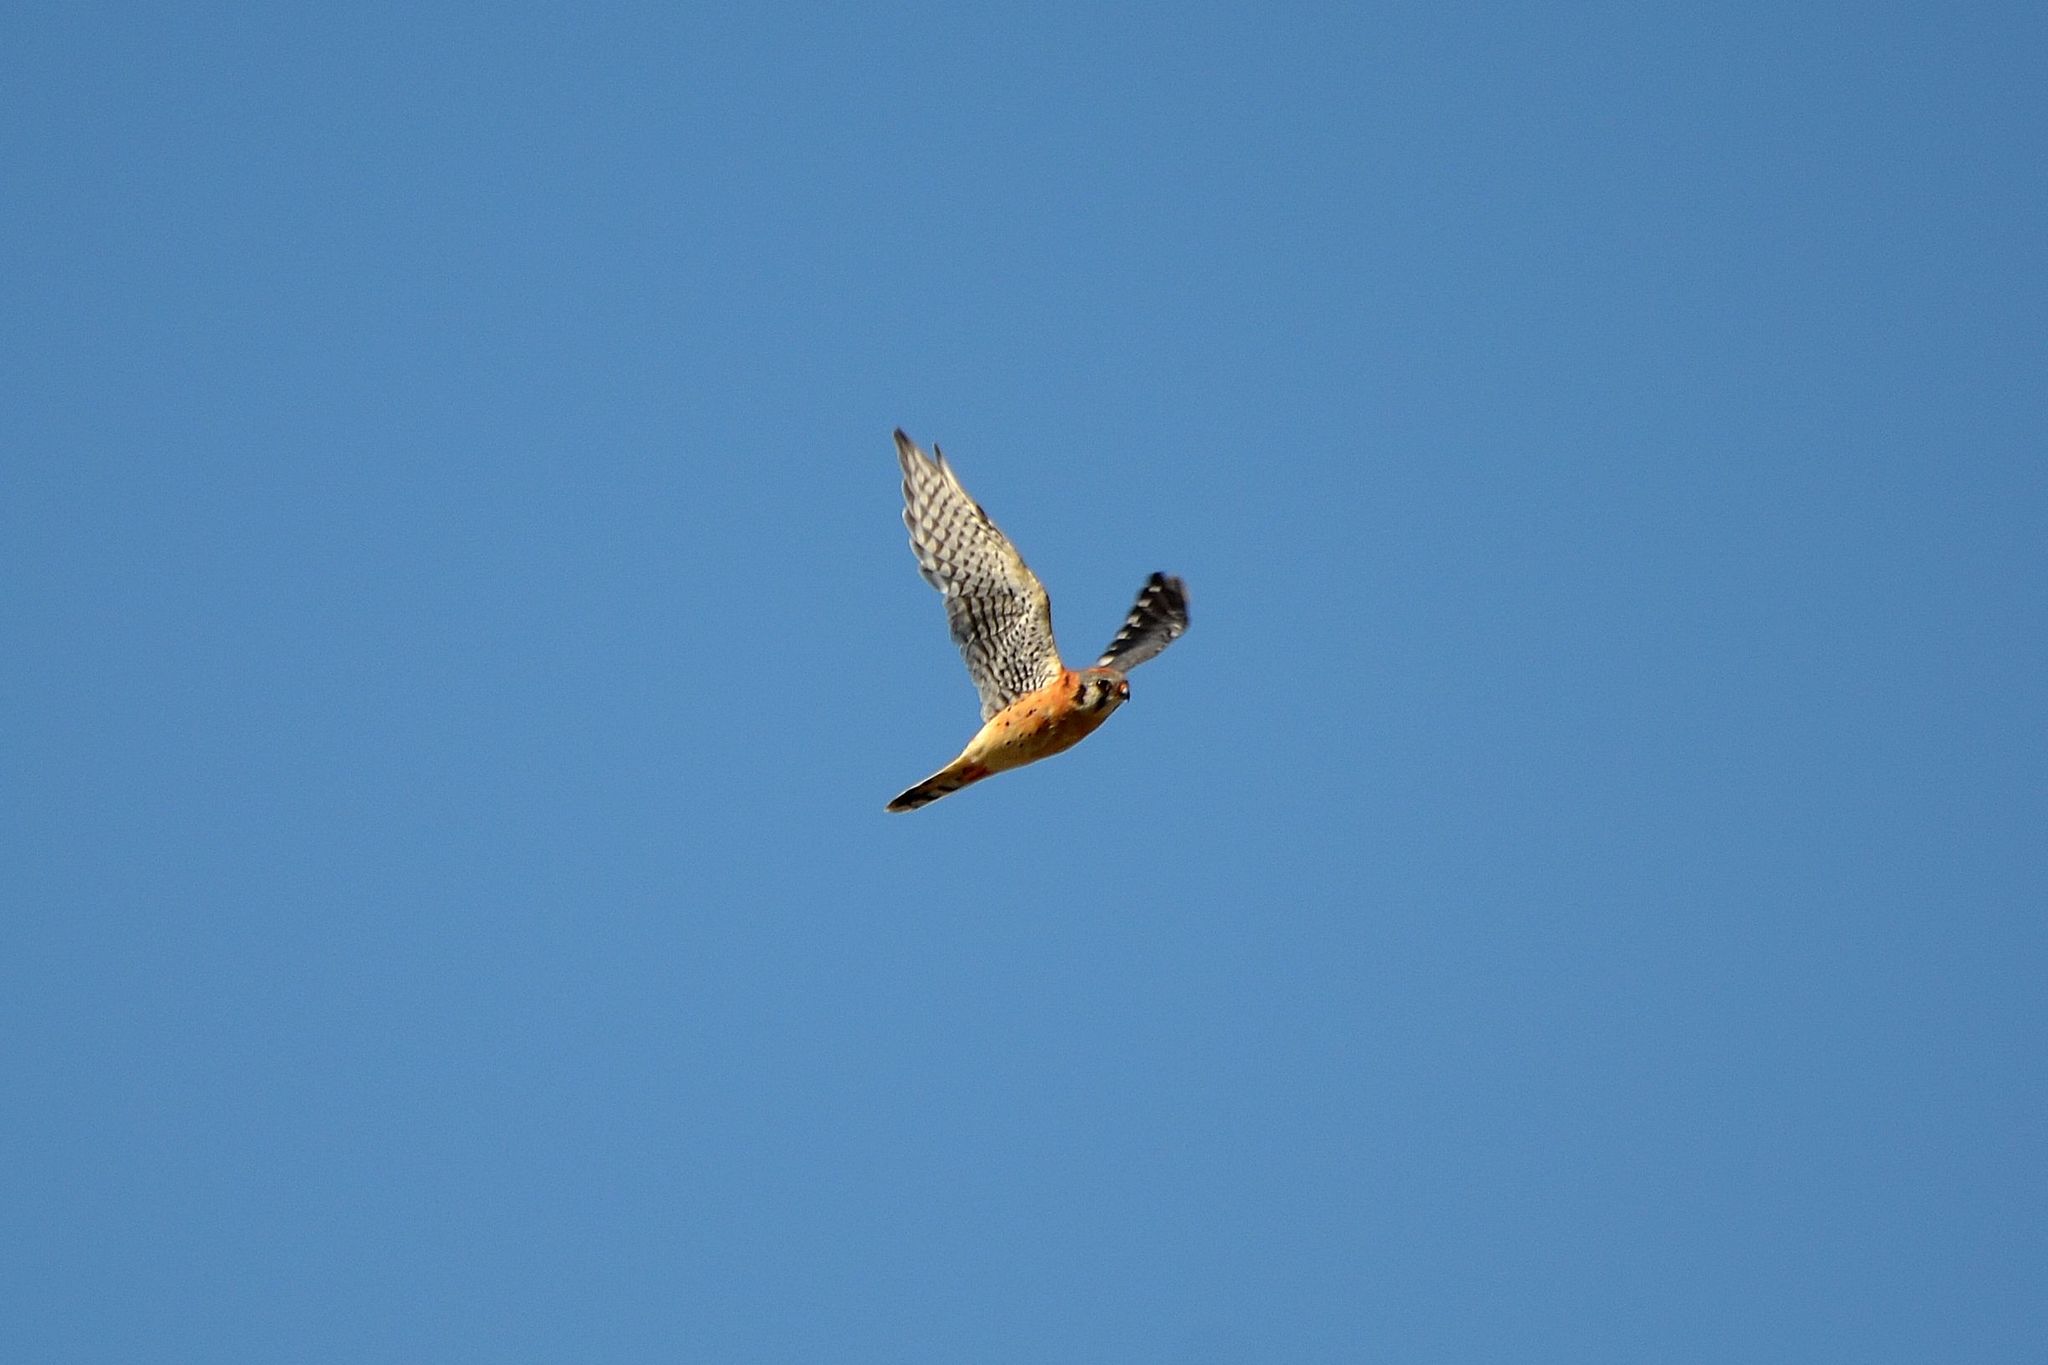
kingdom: Animalia
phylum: Chordata
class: Aves
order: Falconiformes
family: Falconidae
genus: Falco
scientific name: Falco sparverius
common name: American kestrel
